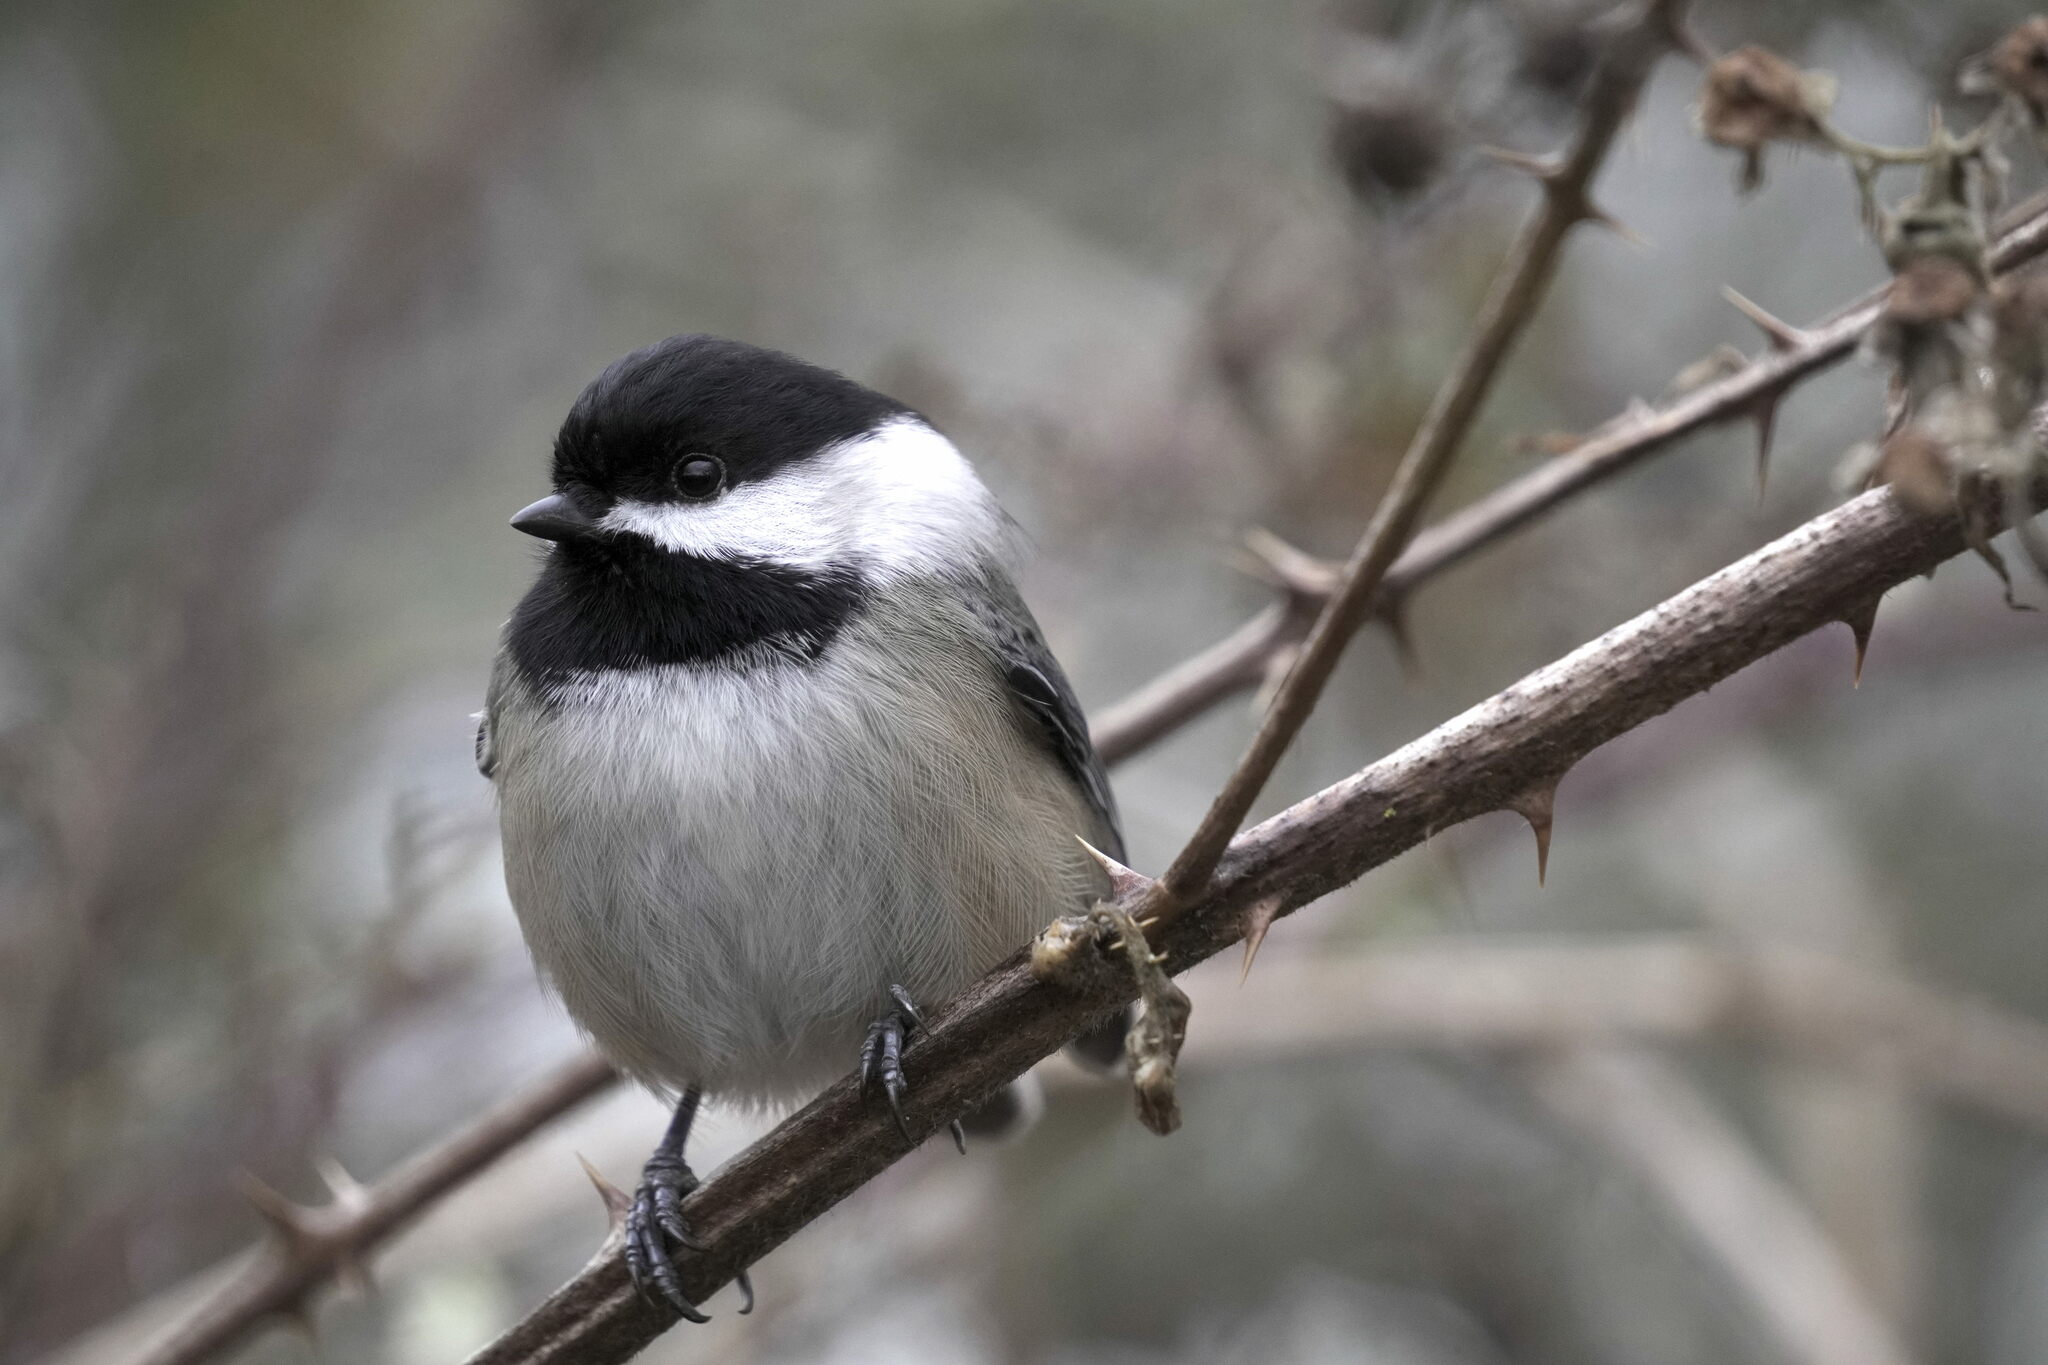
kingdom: Animalia
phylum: Chordata
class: Aves
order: Passeriformes
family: Paridae
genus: Poecile
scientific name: Poecile atricapillus
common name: Black-capped chickadee
